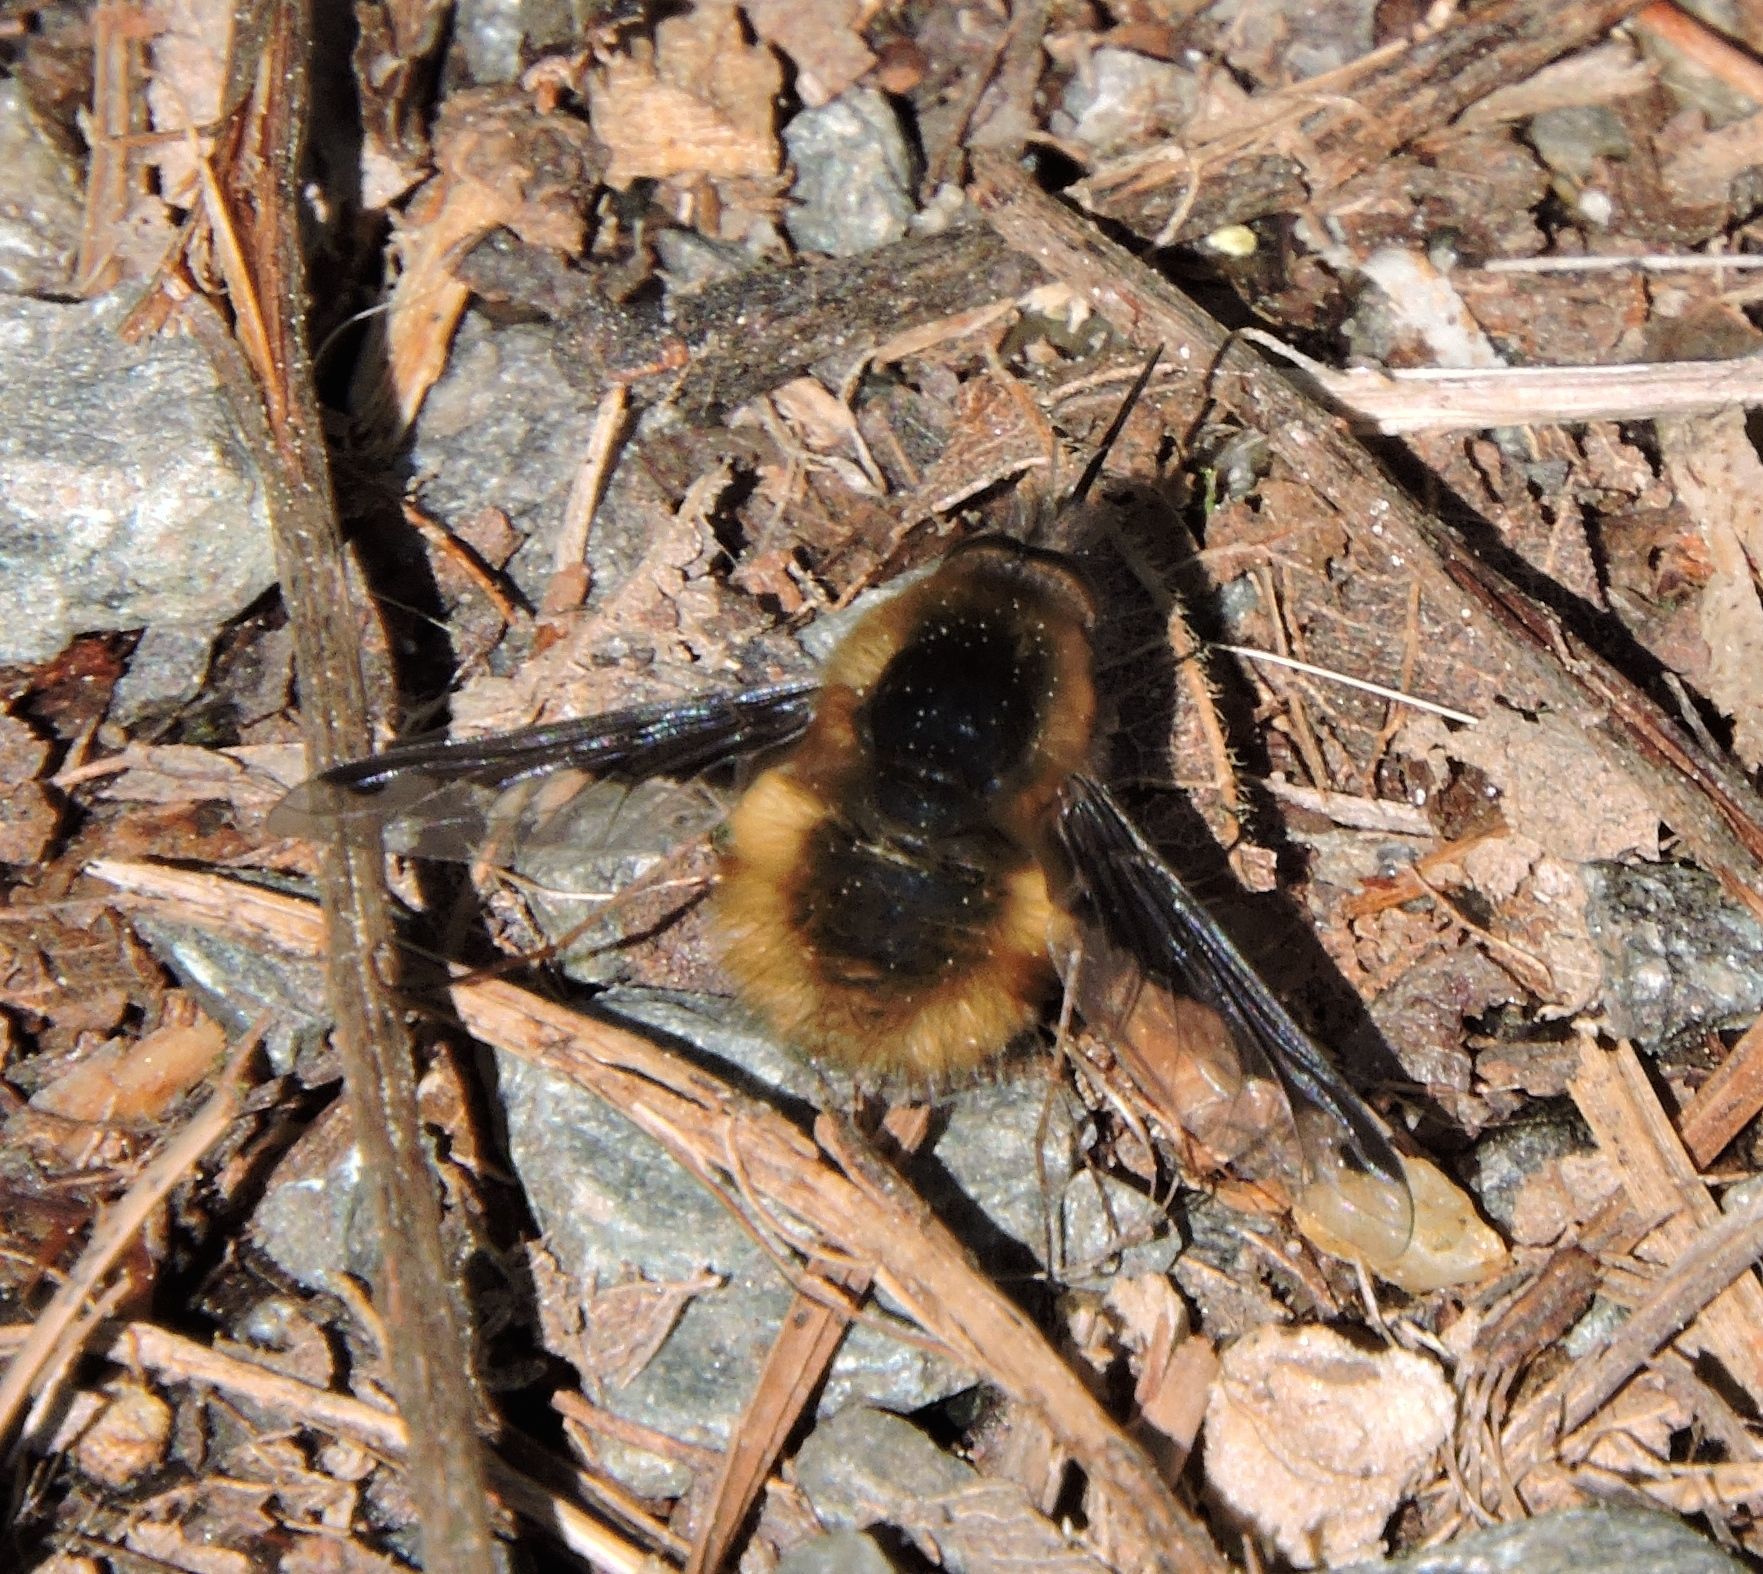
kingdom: Animalia
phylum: Arthropoda
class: Insecta
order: Diptera
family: Bombyliidae
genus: Bombylius
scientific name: Bombylius major
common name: Bee fly
